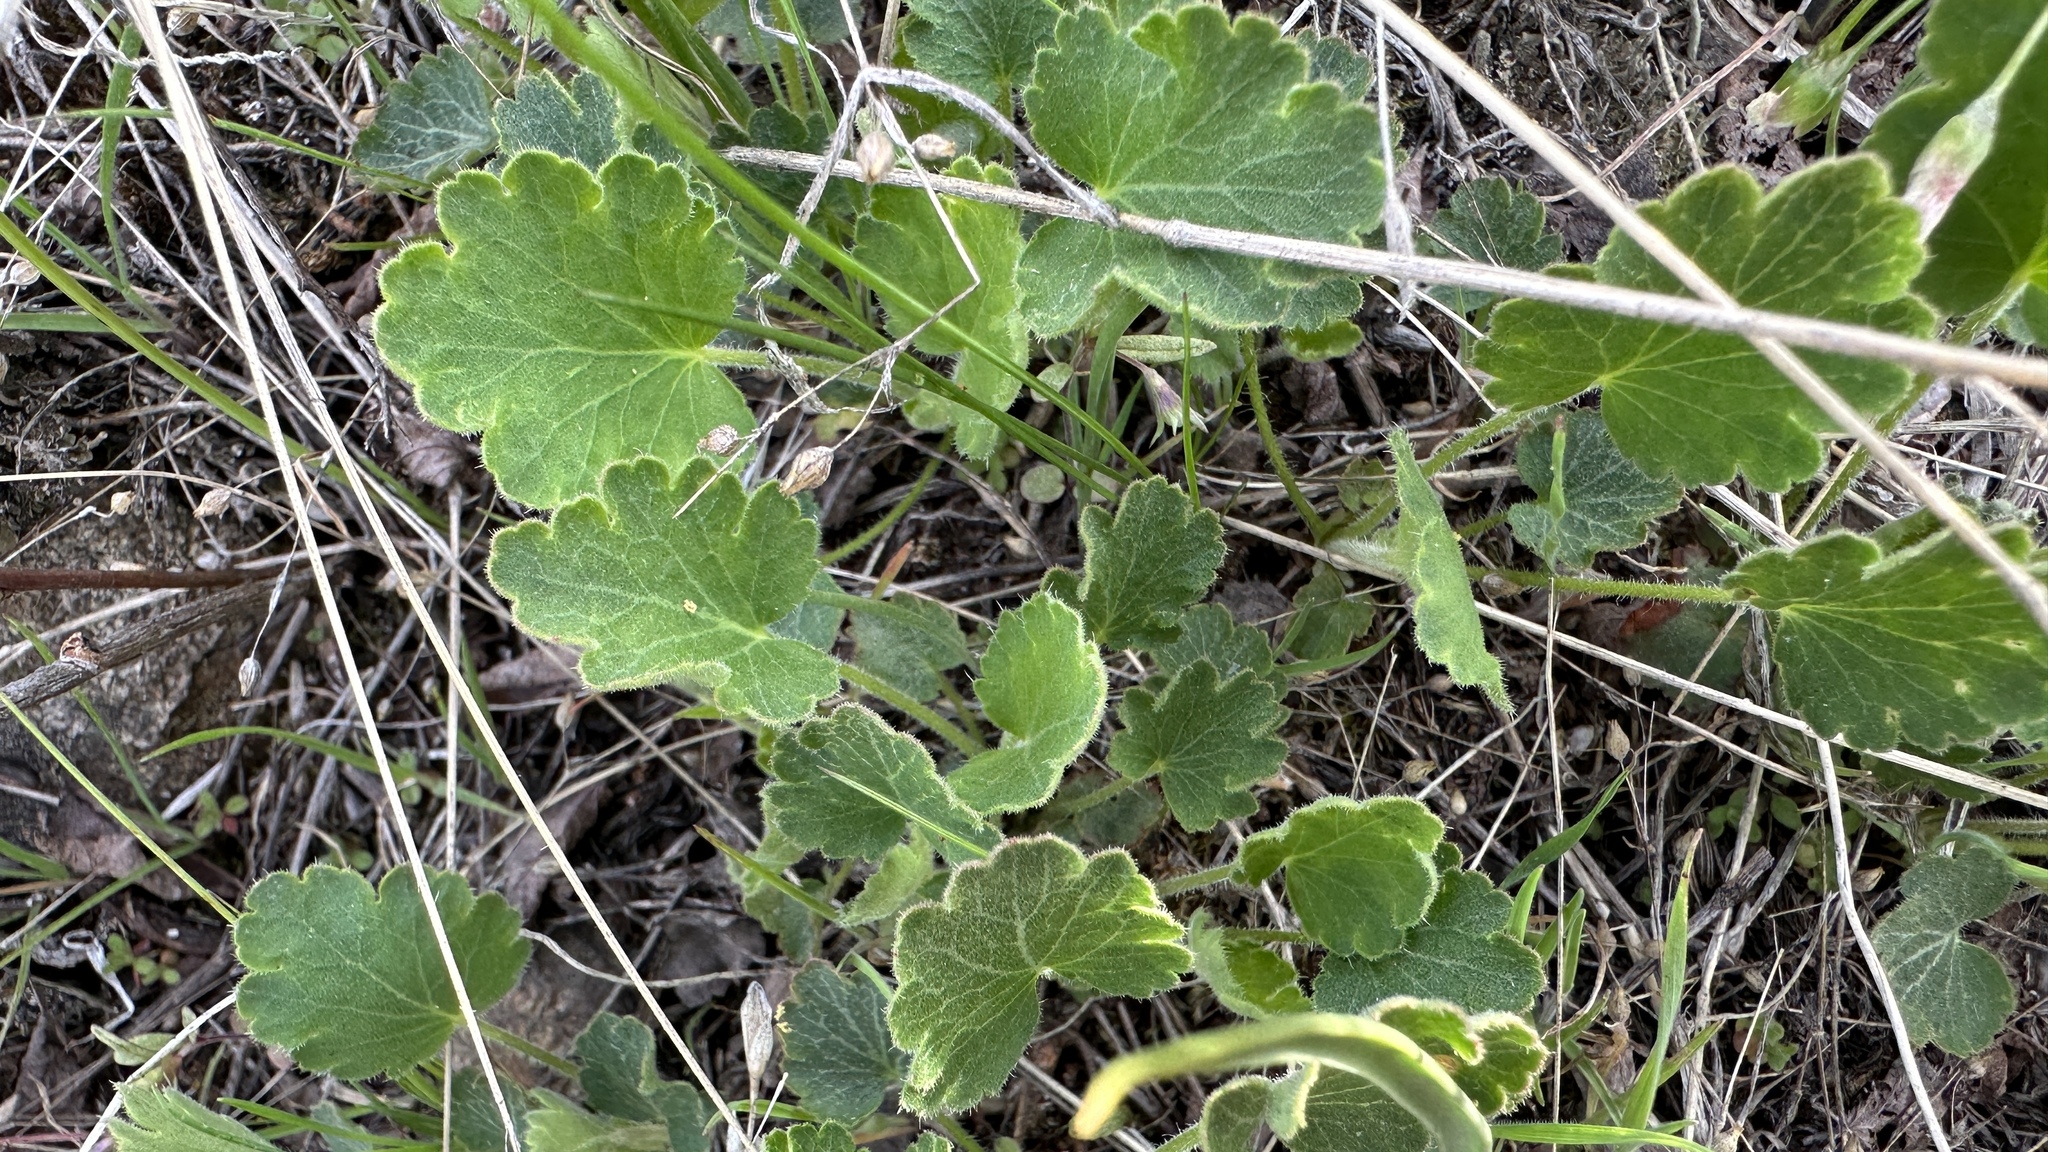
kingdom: Plantae
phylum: Tracheophyta
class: Magnoliopsida
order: Saxifragales
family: Saxifragaceae
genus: Heuchera
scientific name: Heuchera cylindrica
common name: Mat alumroot
